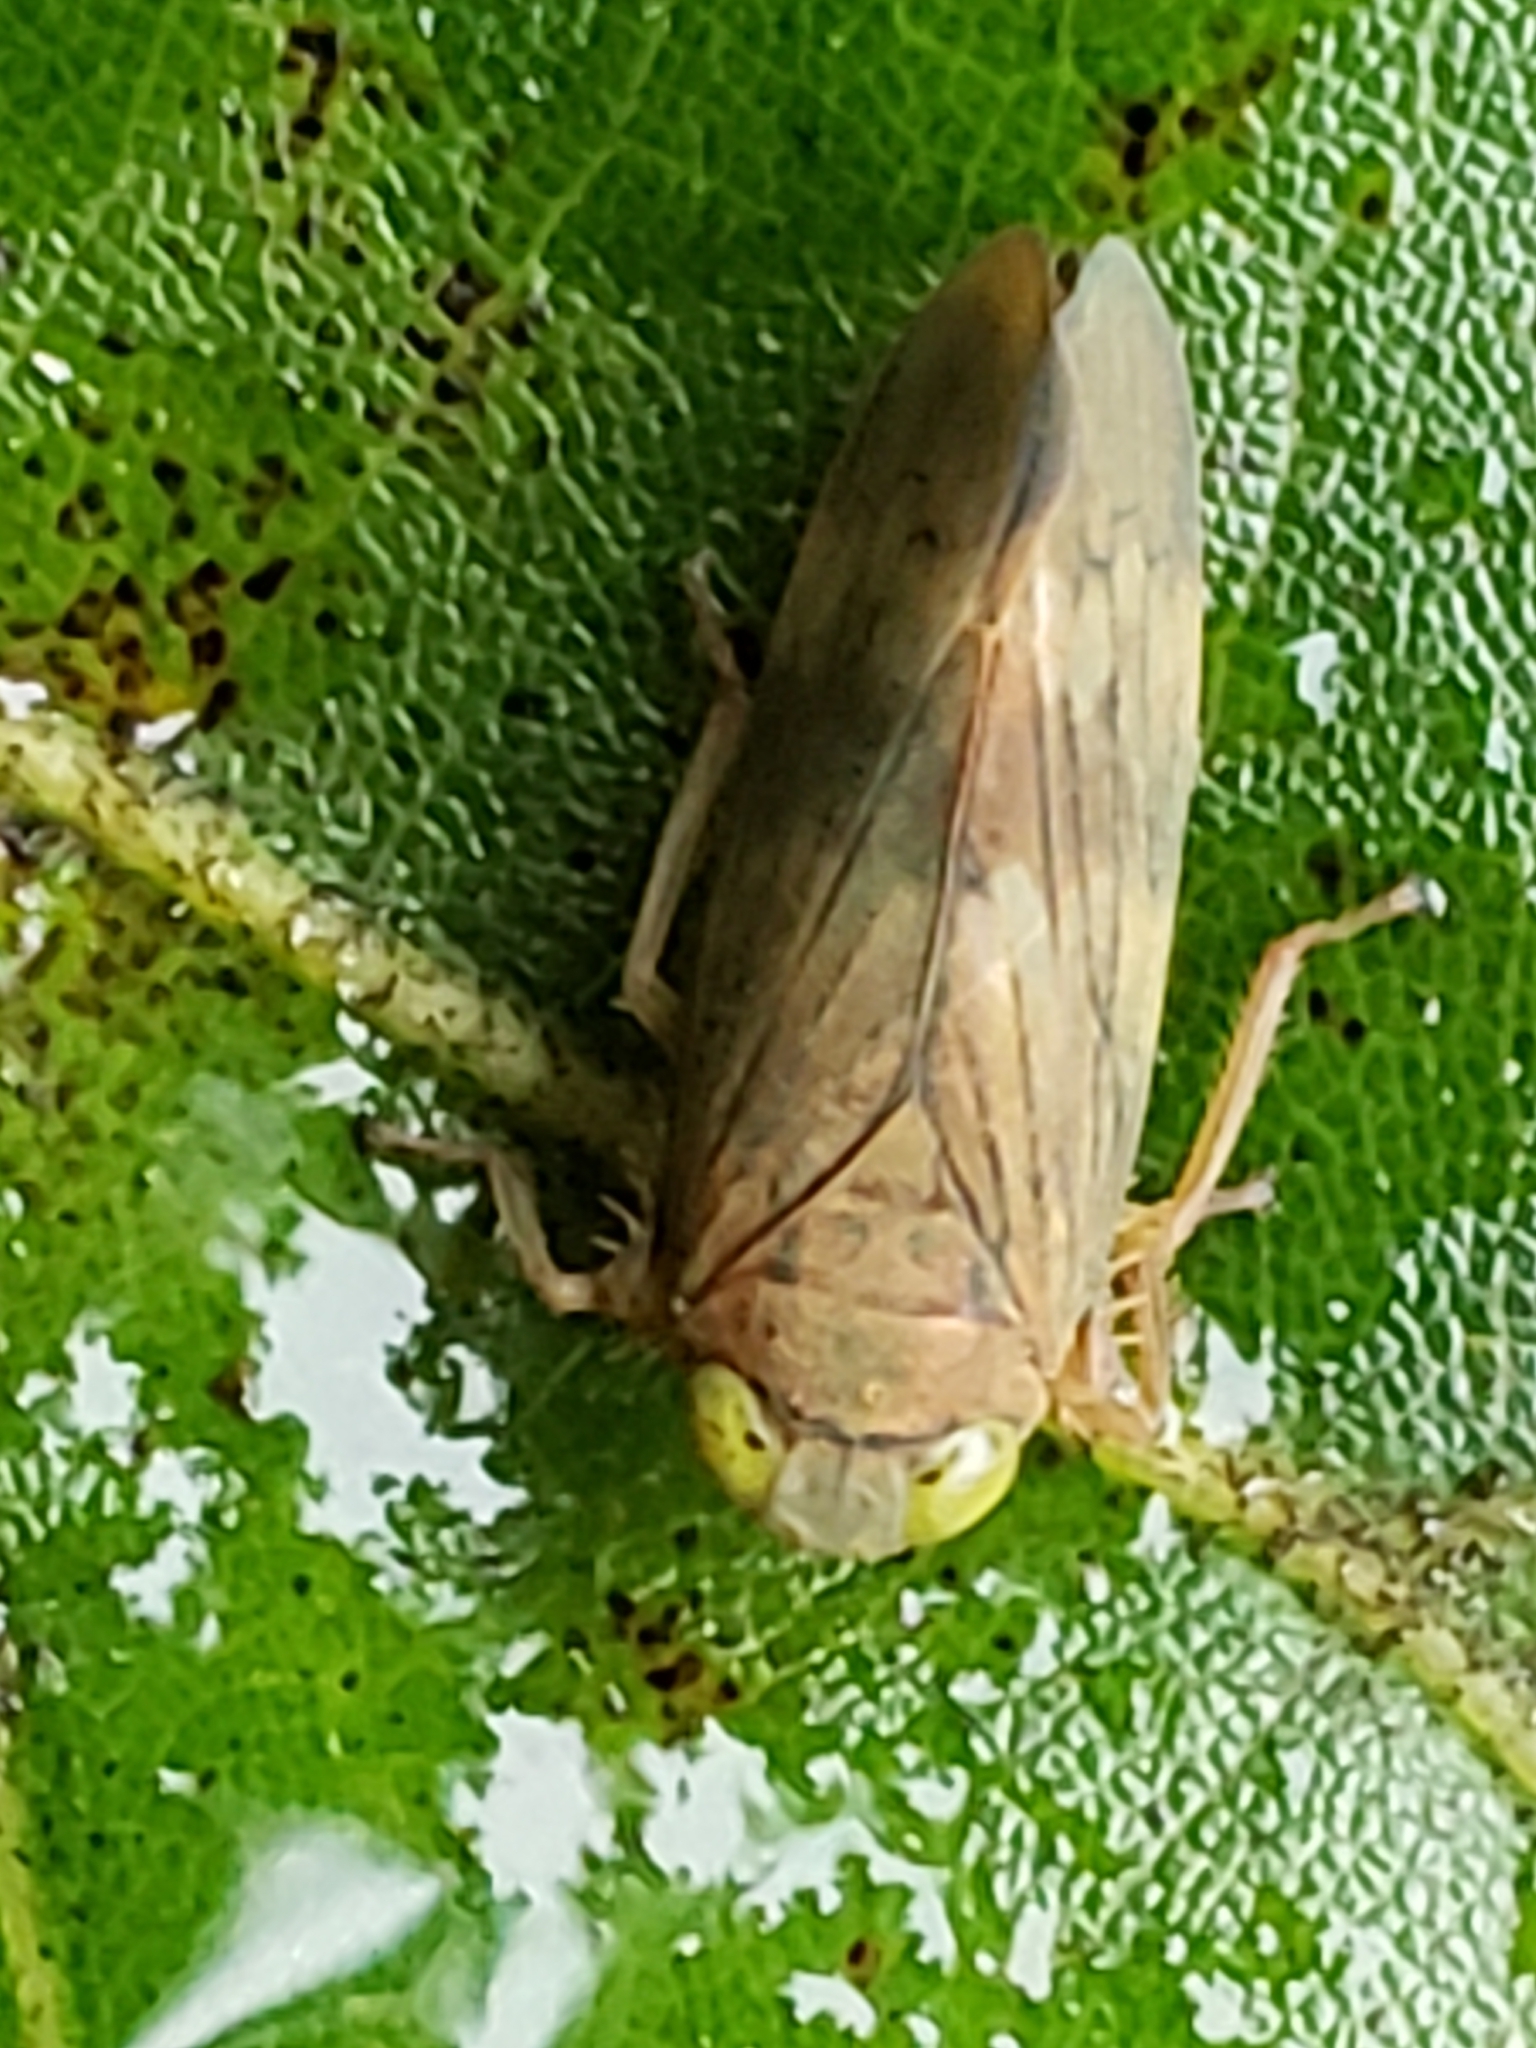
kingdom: Animalia
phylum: Arthropoda
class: Insecta
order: Hemiptera
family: Cicadellidae
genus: Jikradia
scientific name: Jikradia olitoria
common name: Coppery leafhopper
